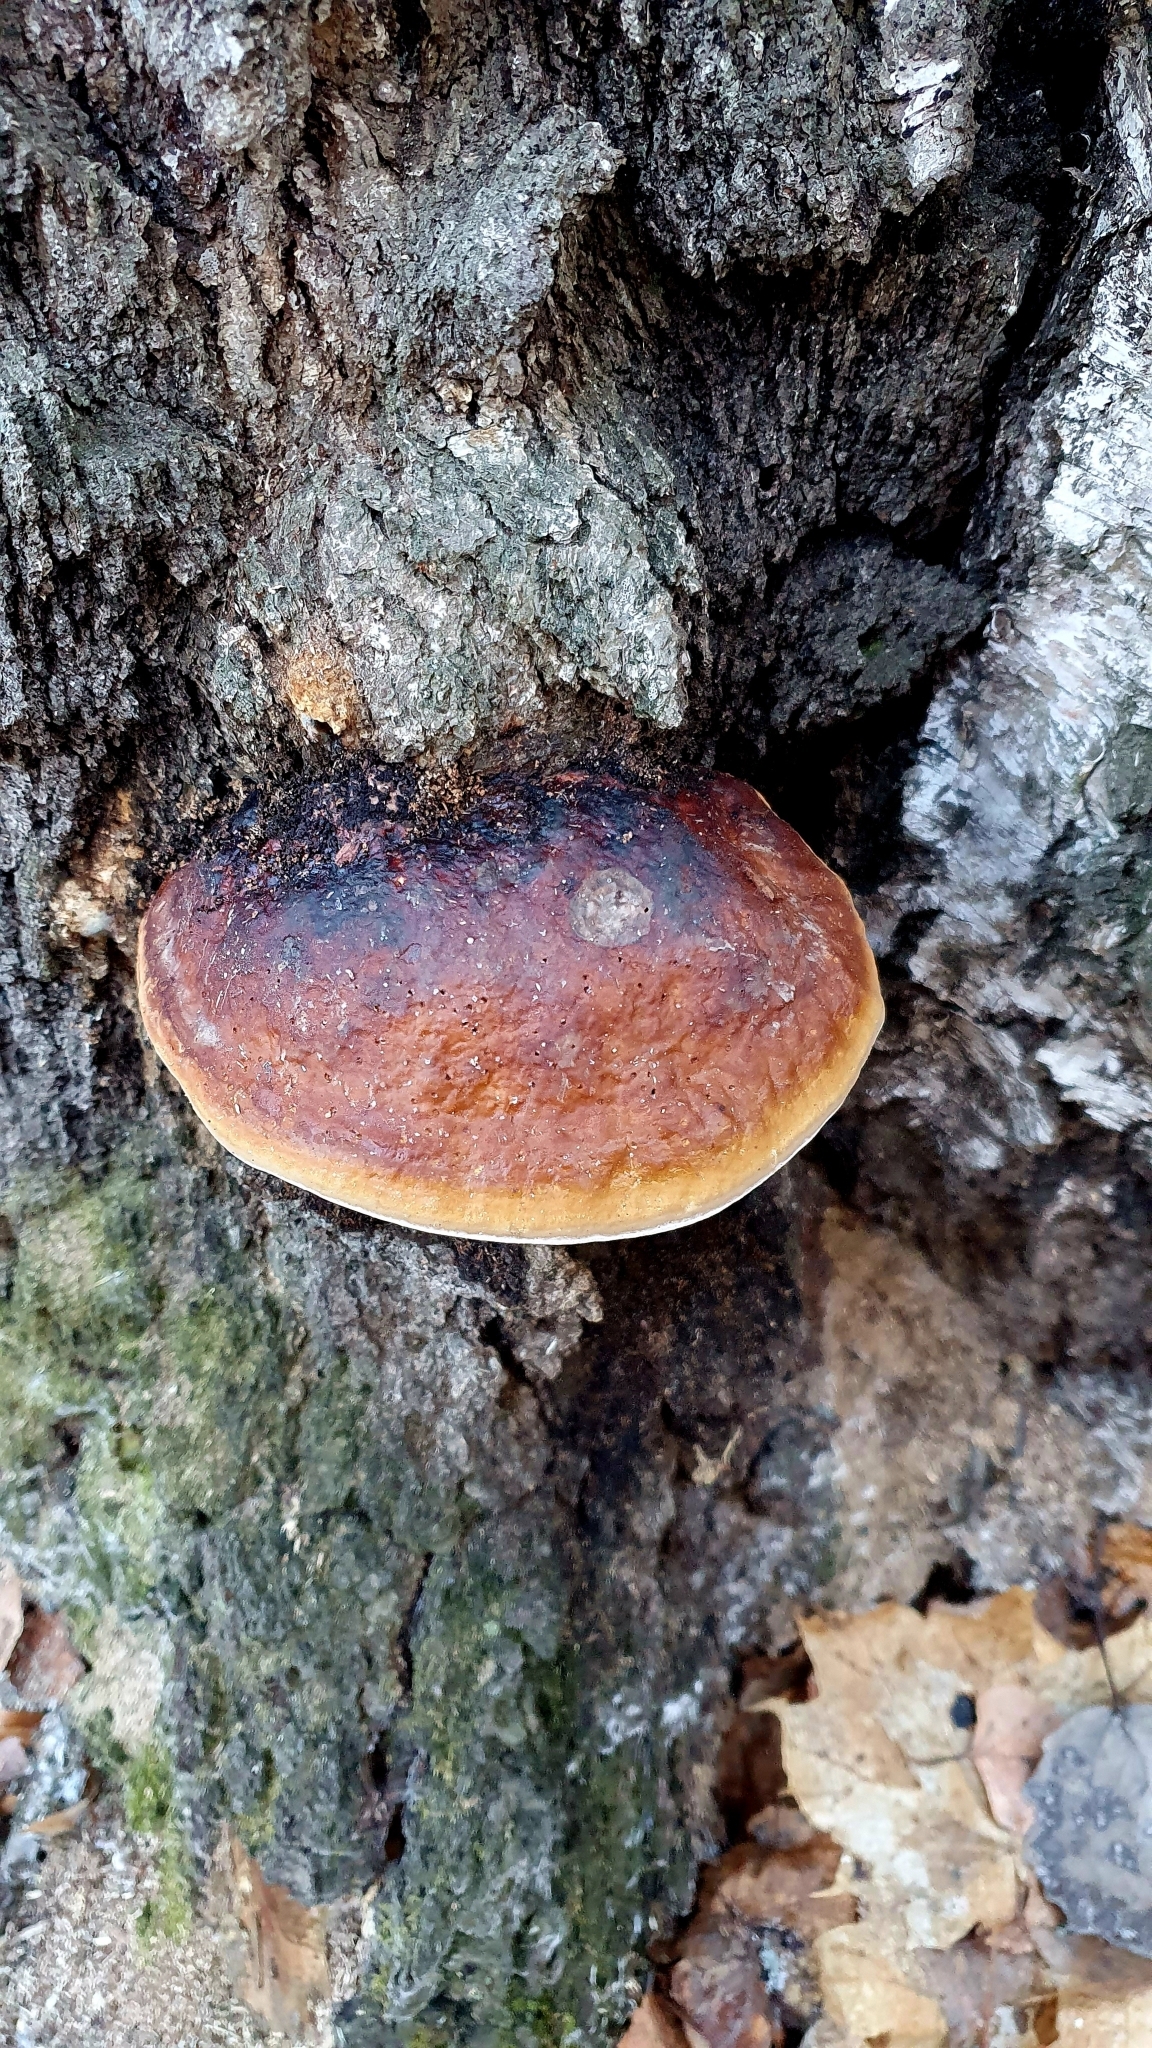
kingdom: Fungi
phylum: Basidiomycota
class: Agaricomycetes
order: Polyporales
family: Fomitopsidaceae
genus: Fomitopsis
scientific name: Fomitopsis pinicola
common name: Red-belted bracket
